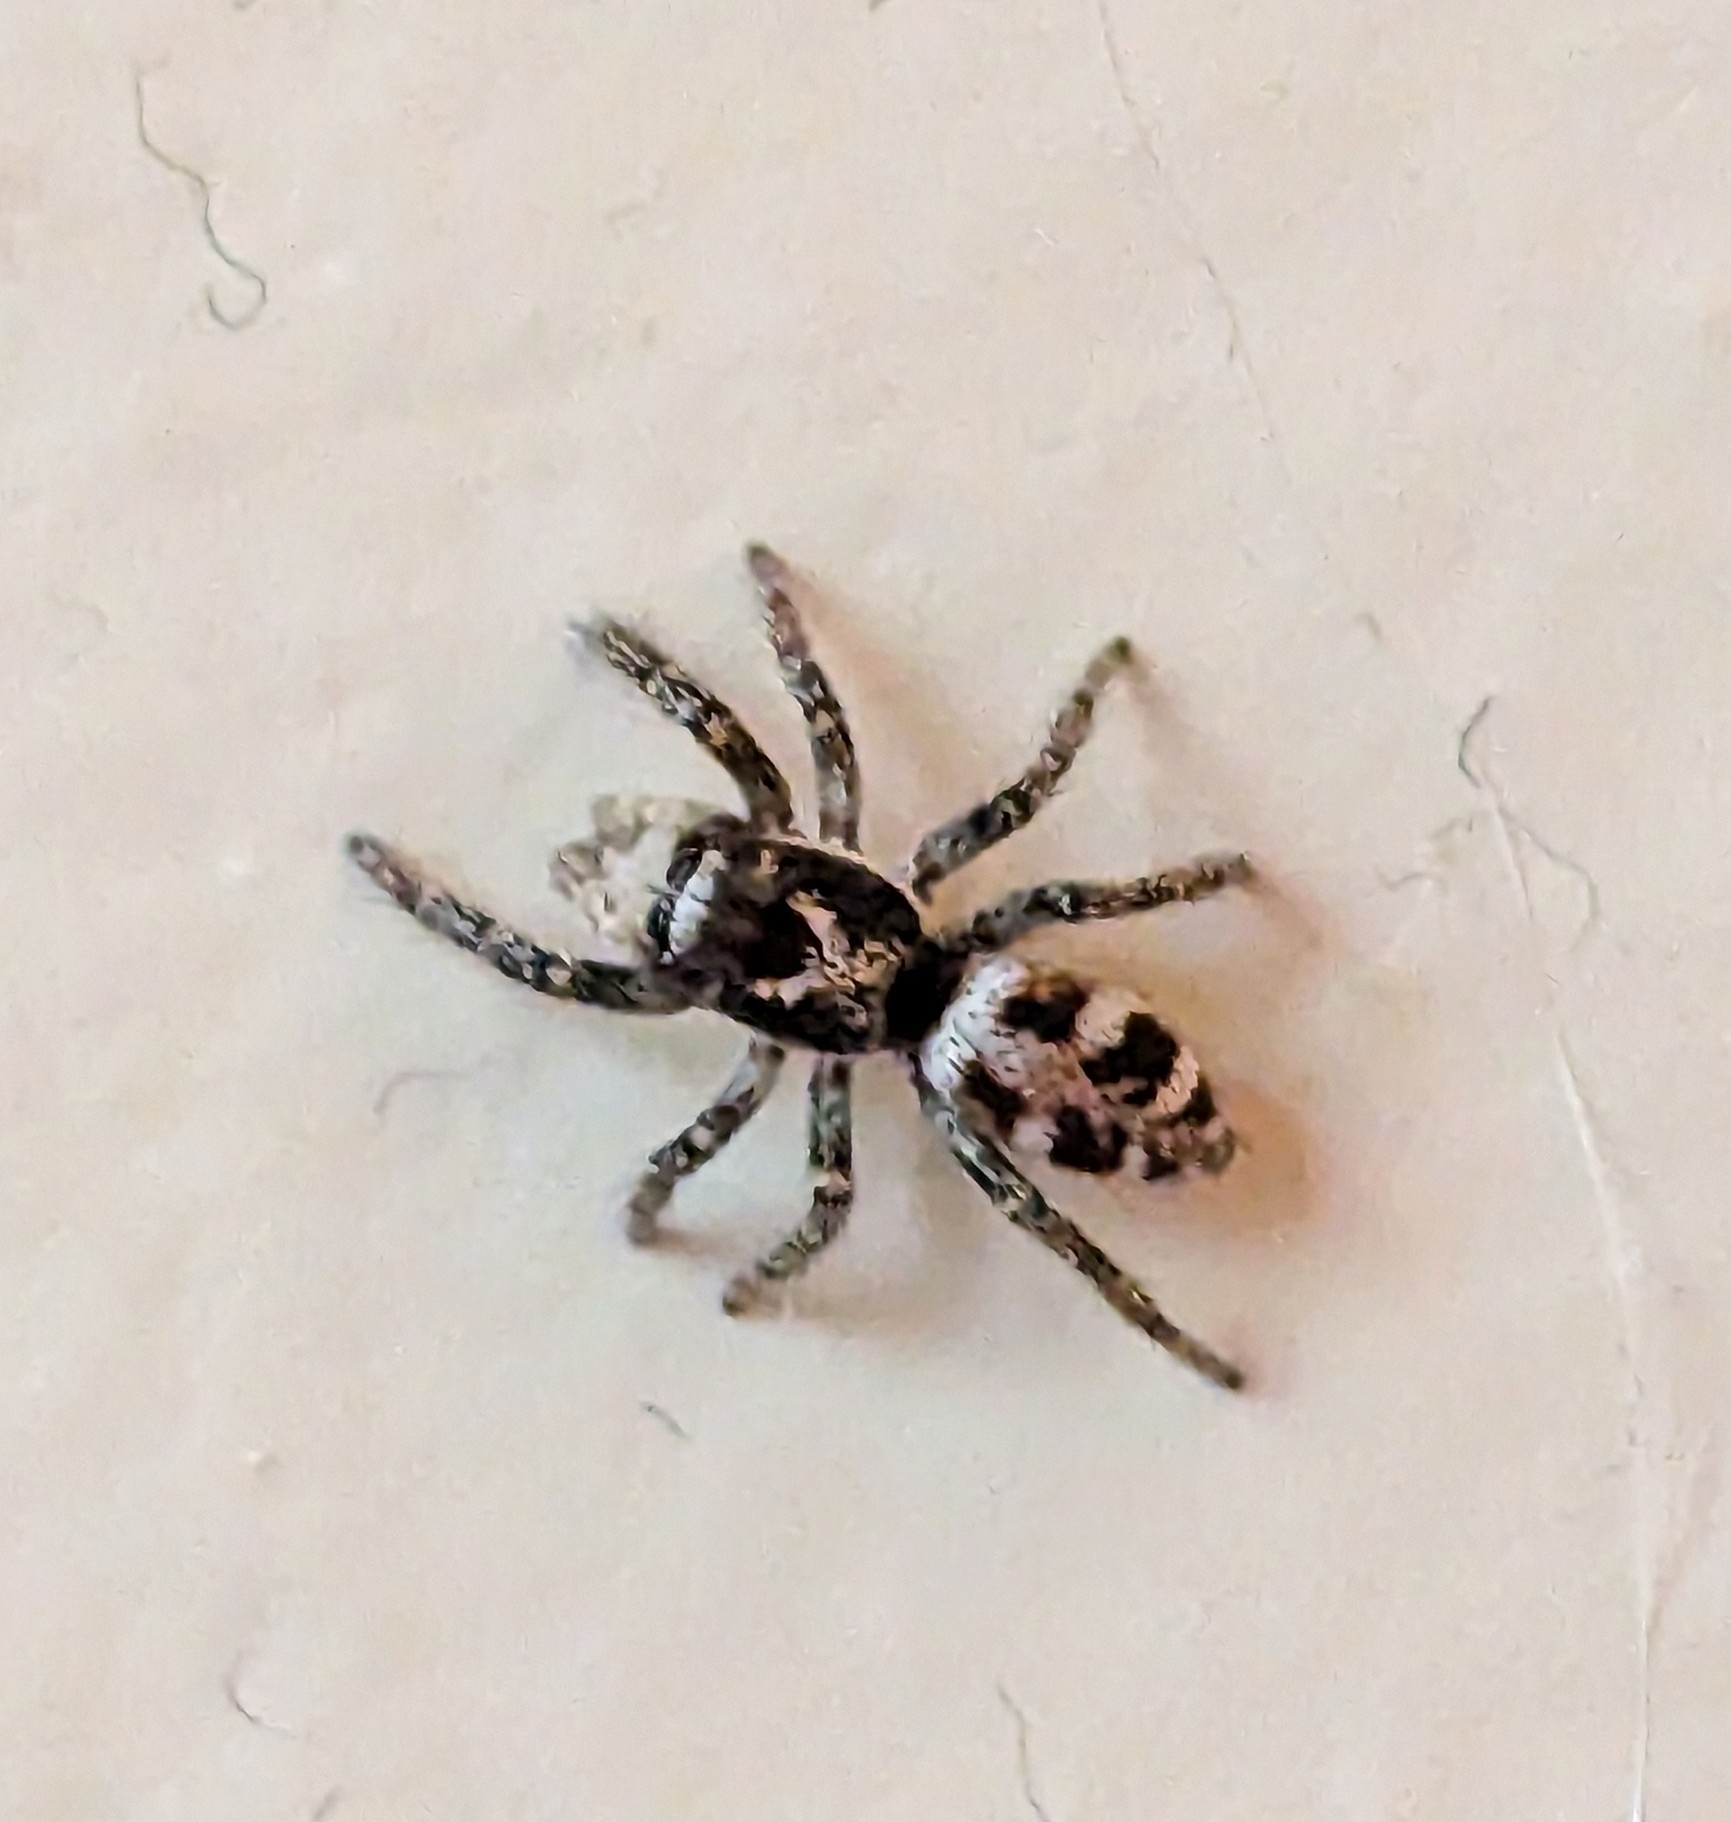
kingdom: Animalia
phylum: Arthropoda
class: Arachnida
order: Araneae
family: Salticidae
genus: Salticus
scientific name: Salticus scenicus
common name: Zebra jumper
